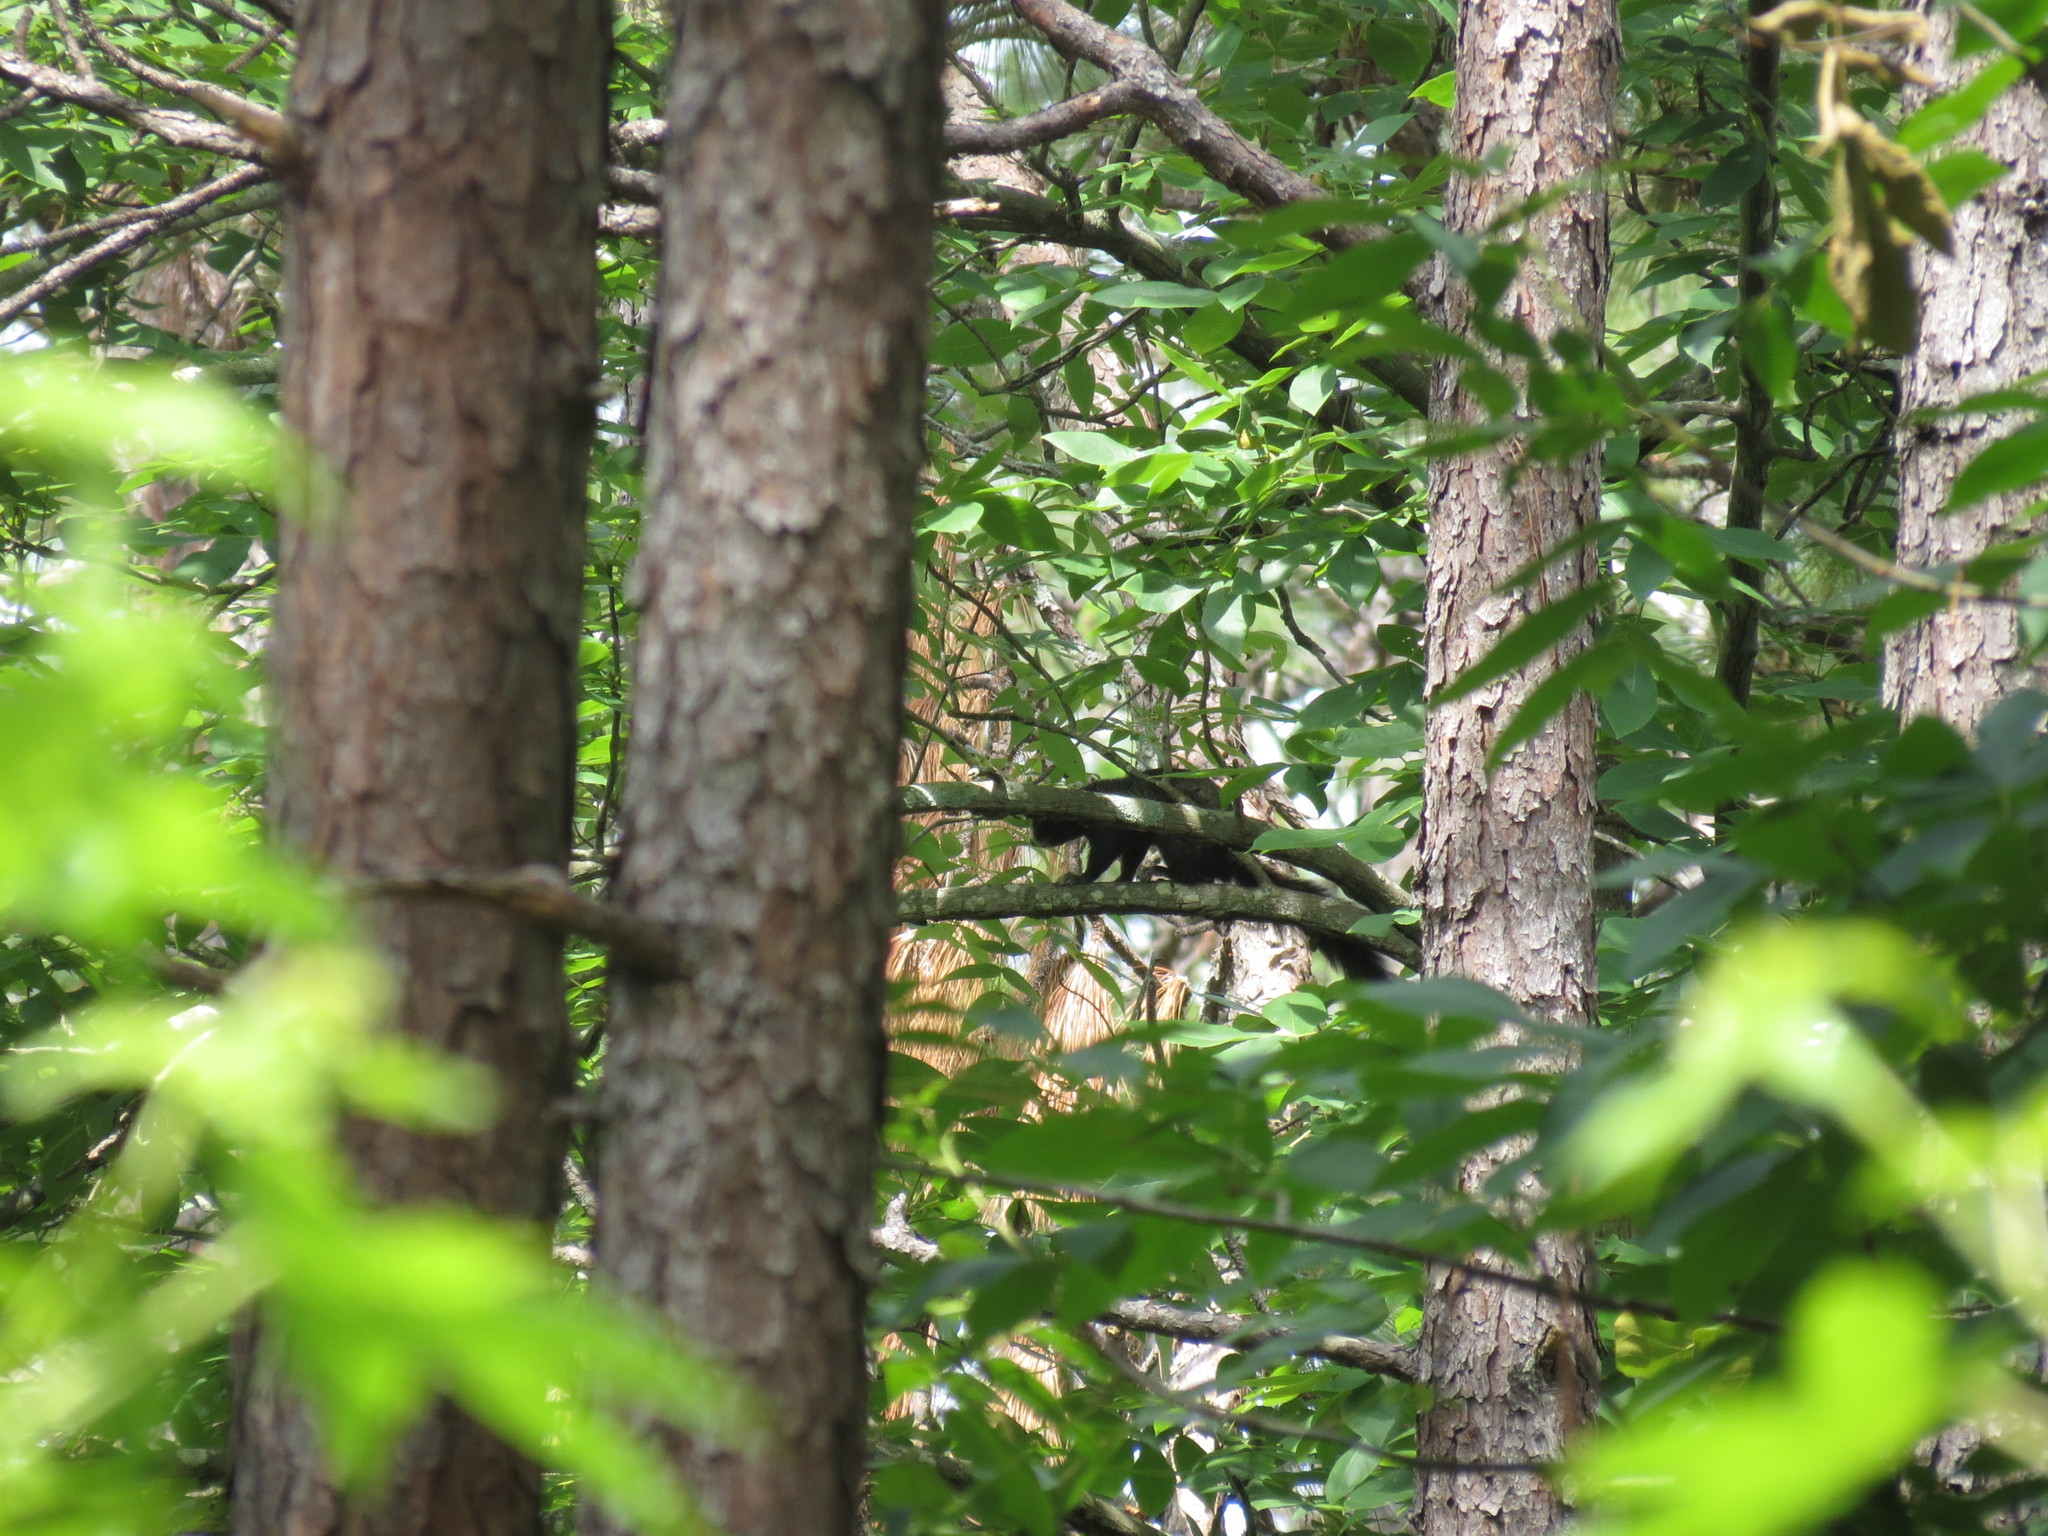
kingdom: Animalia
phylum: Chordata
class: Mammalia
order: Rodentia
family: Sciuridae
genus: Sciurus
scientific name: Sciurus niger
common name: Fox squirrel
